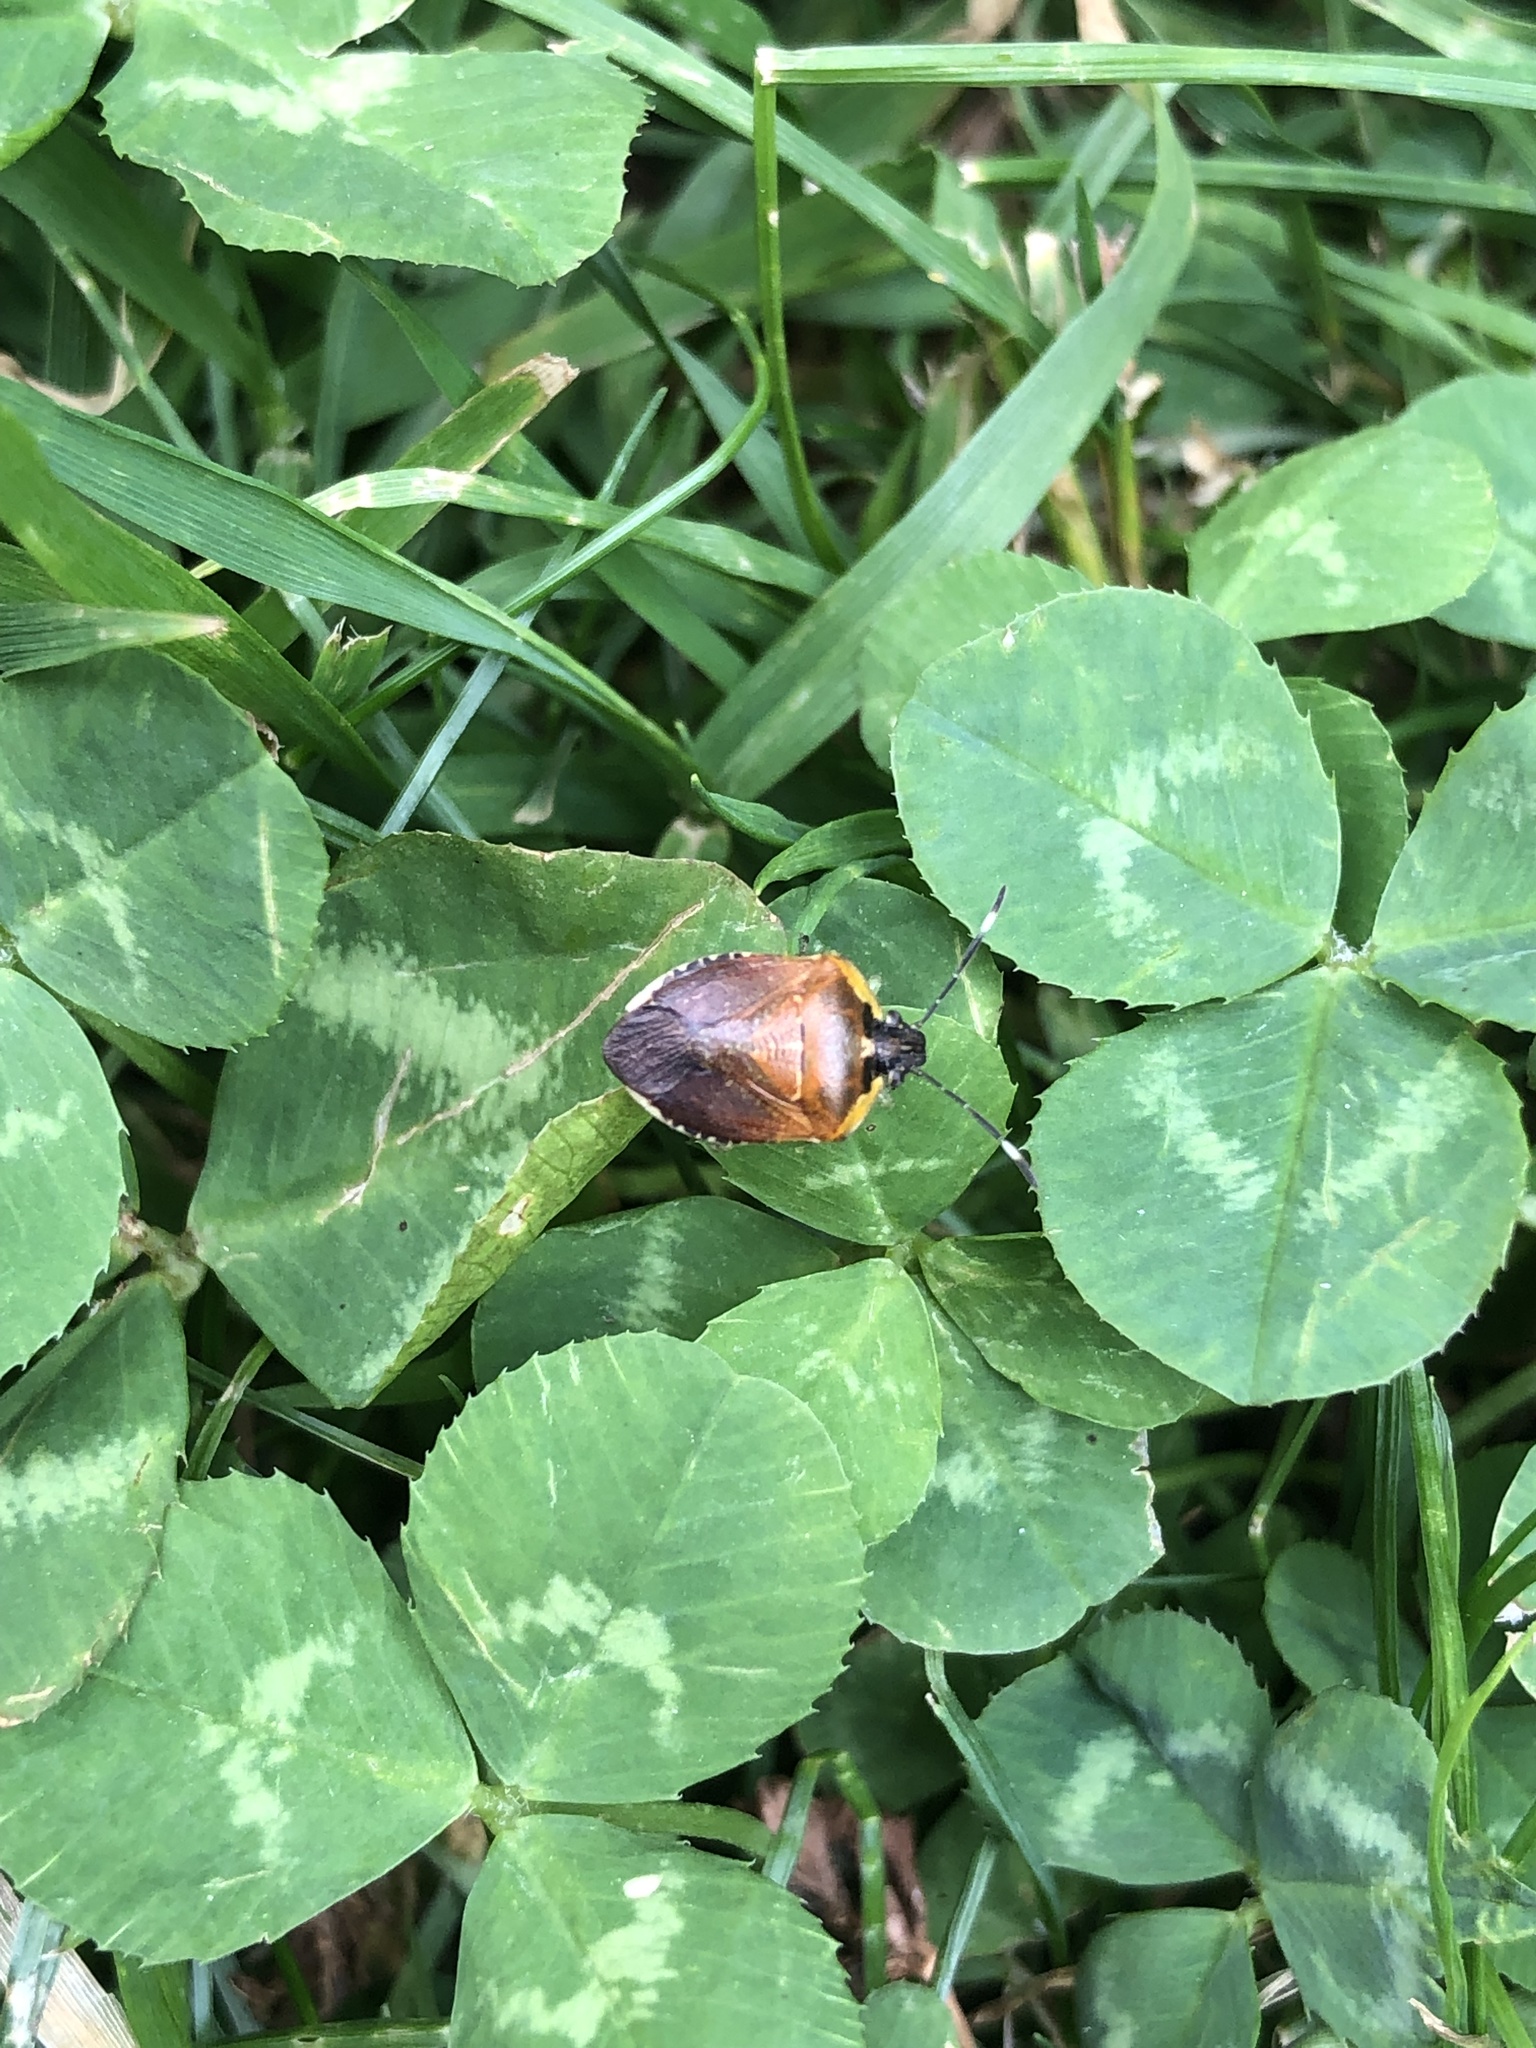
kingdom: Animalia
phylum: Arthropoda
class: Insecta
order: Hemiptera
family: Pentatomidae
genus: Monteithiella
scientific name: Monteithiella
